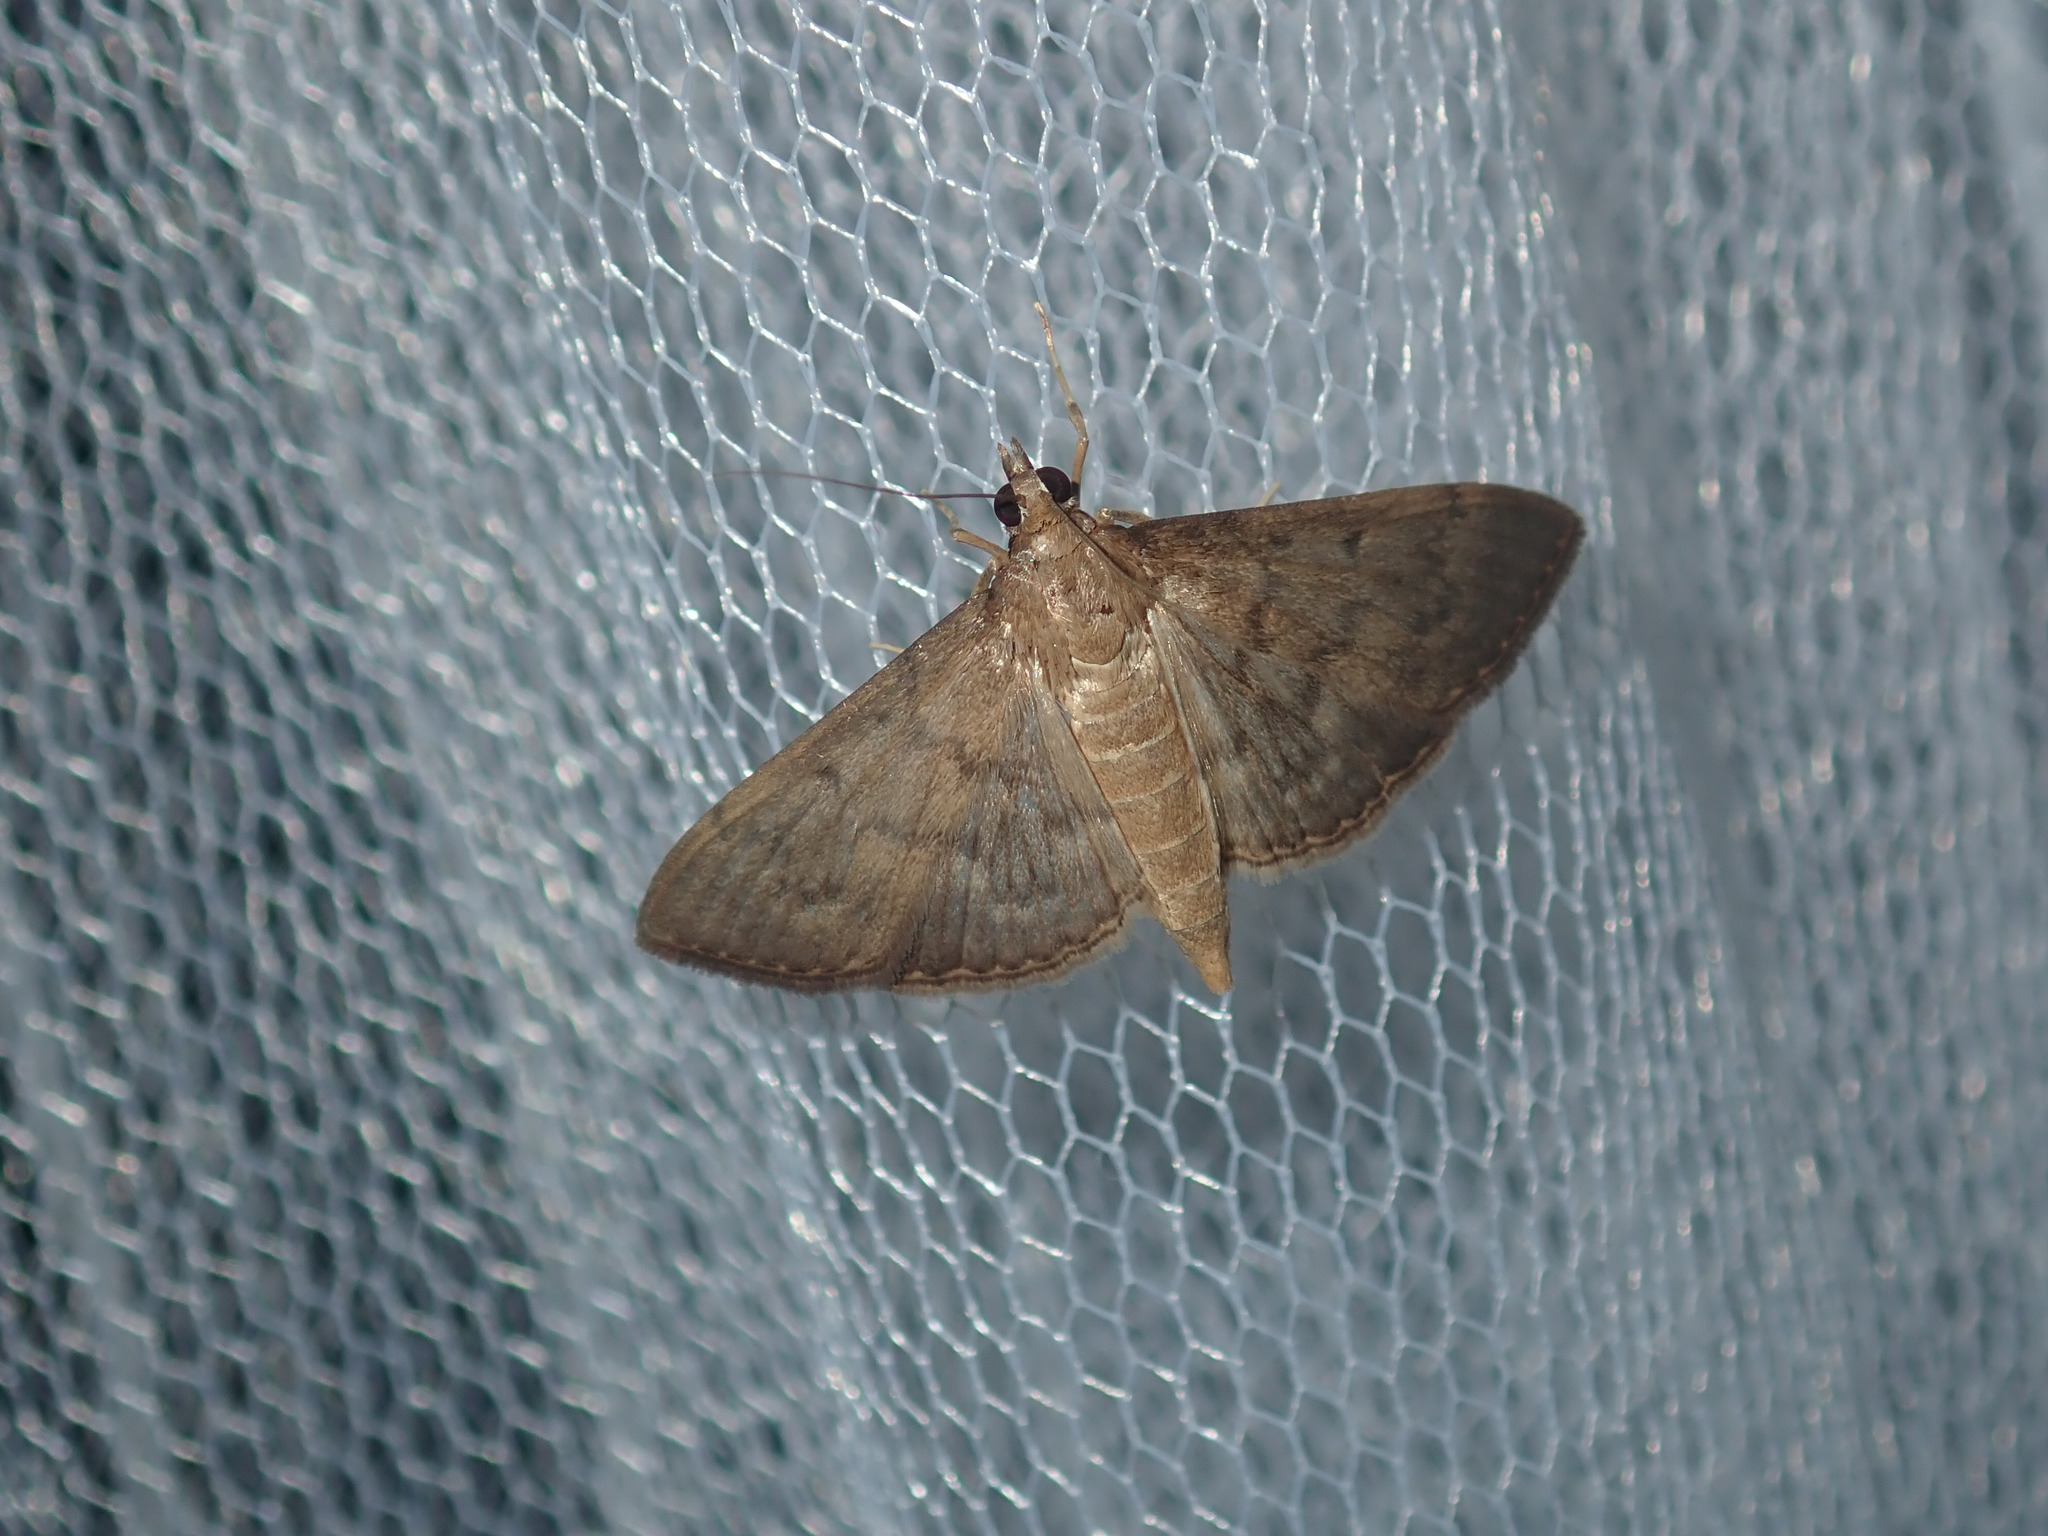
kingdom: Animalia
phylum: Arthropoda
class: Insecta
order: Lepidoptera
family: Crambidae
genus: Herpetogramma
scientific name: Herpetogramma licarsisalis
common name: Grass webworm
